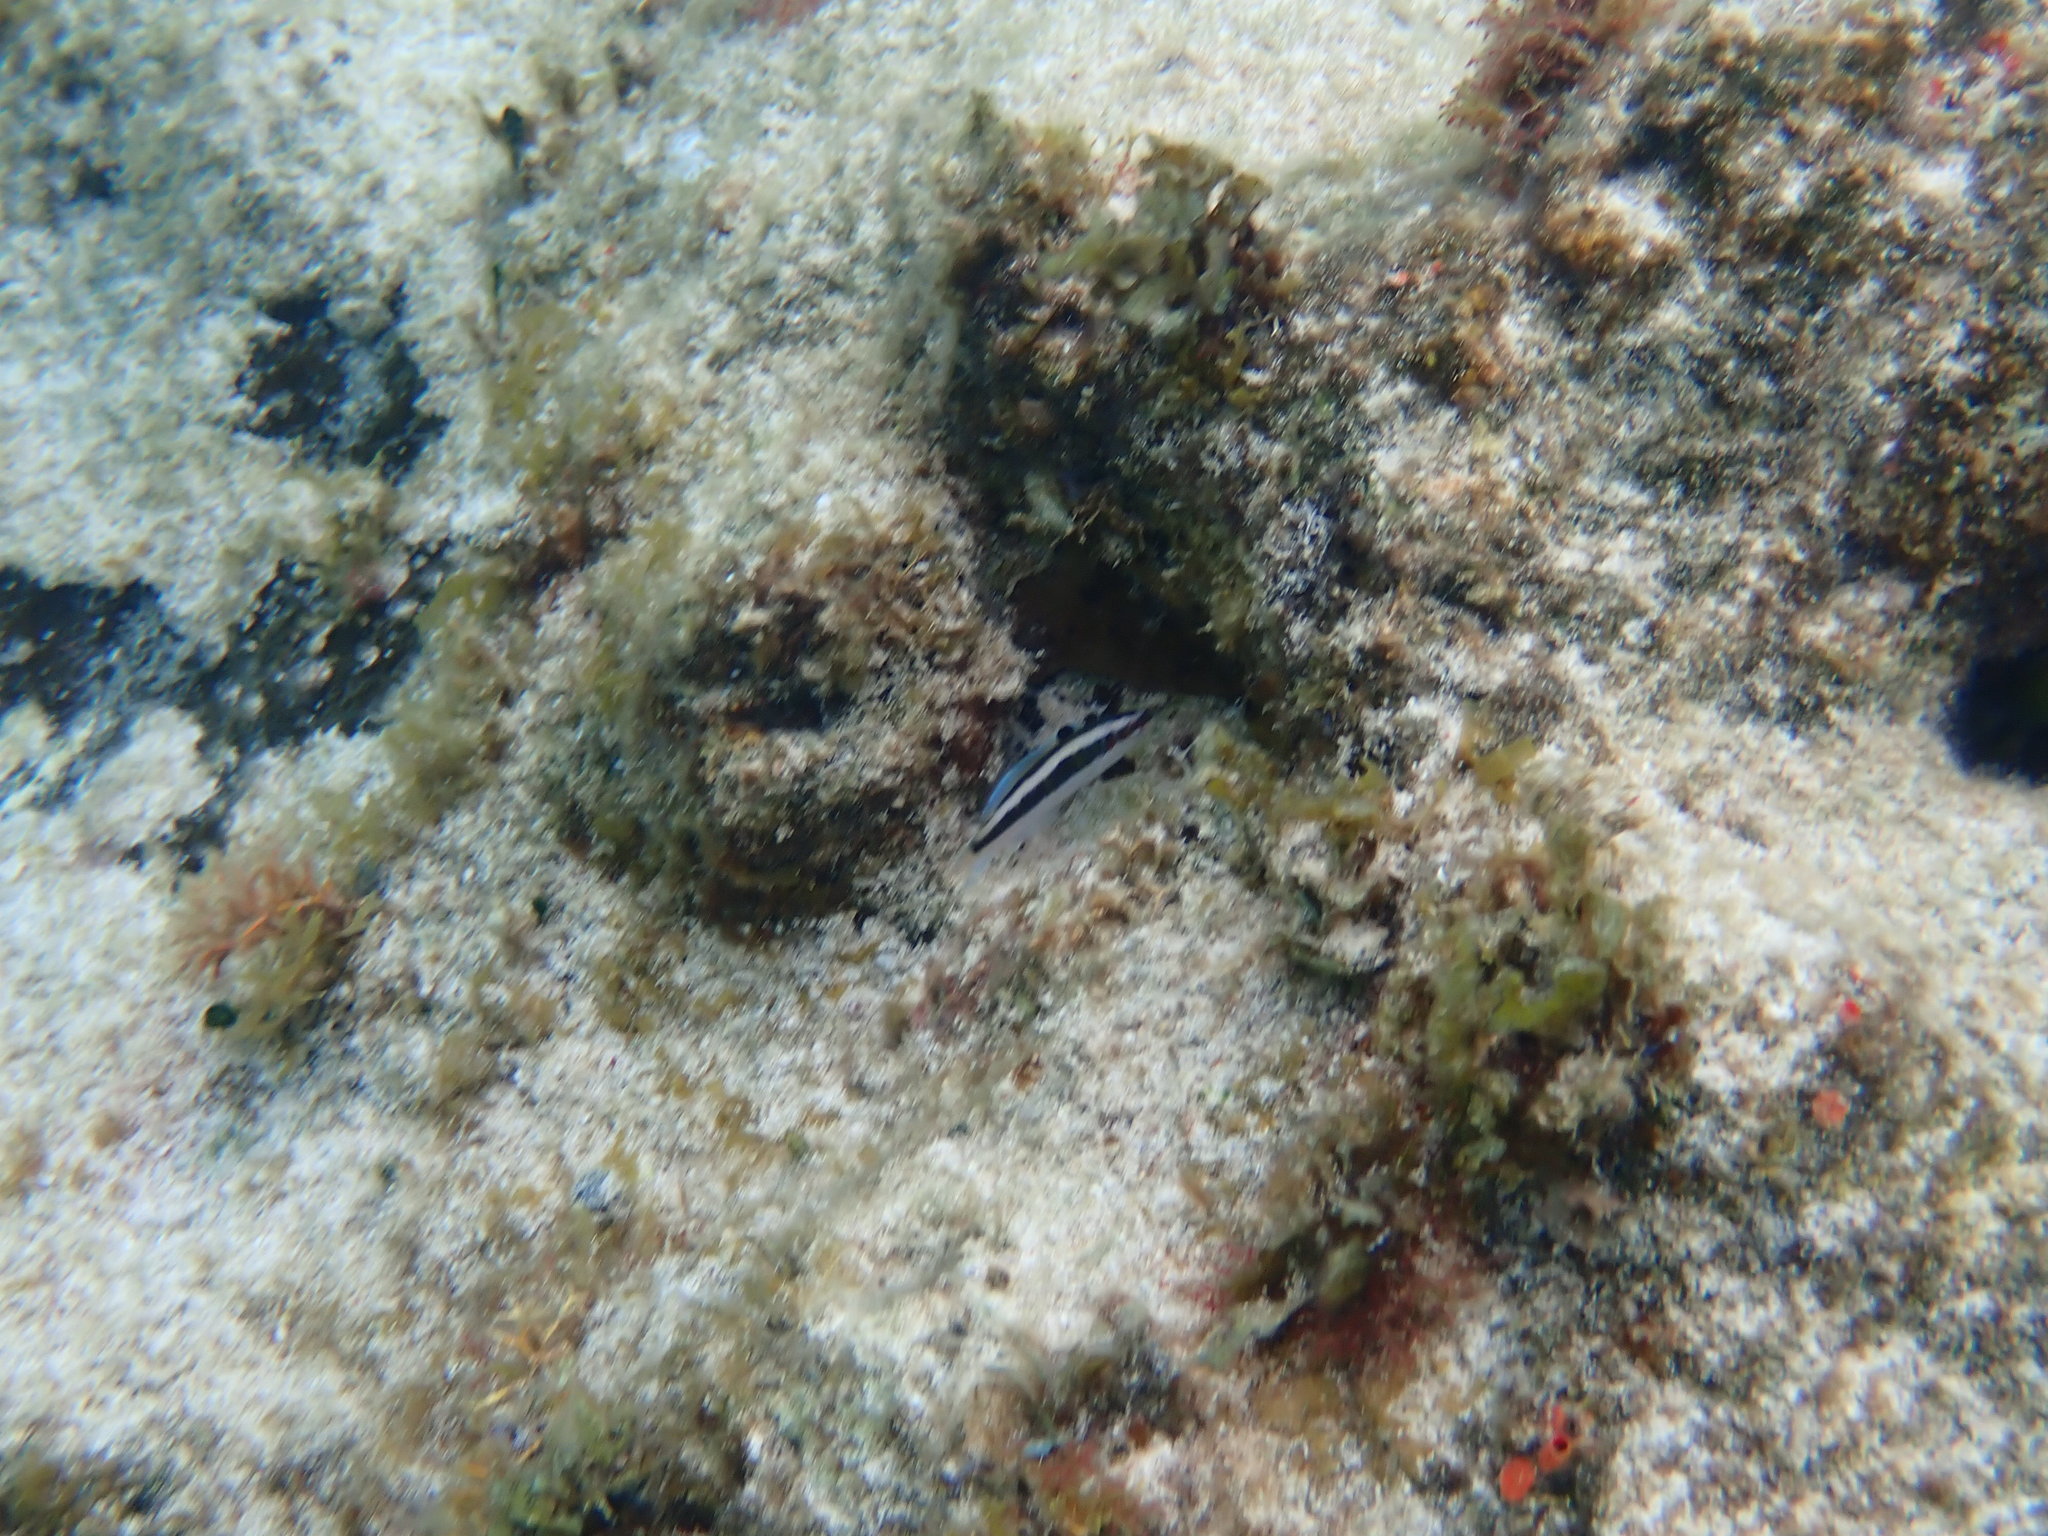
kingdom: Animalia
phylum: Chordata
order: Perciformes
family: Labridae
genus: Thalassoma
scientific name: Thalassoma bifasciatum
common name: Bluehead wrasse
